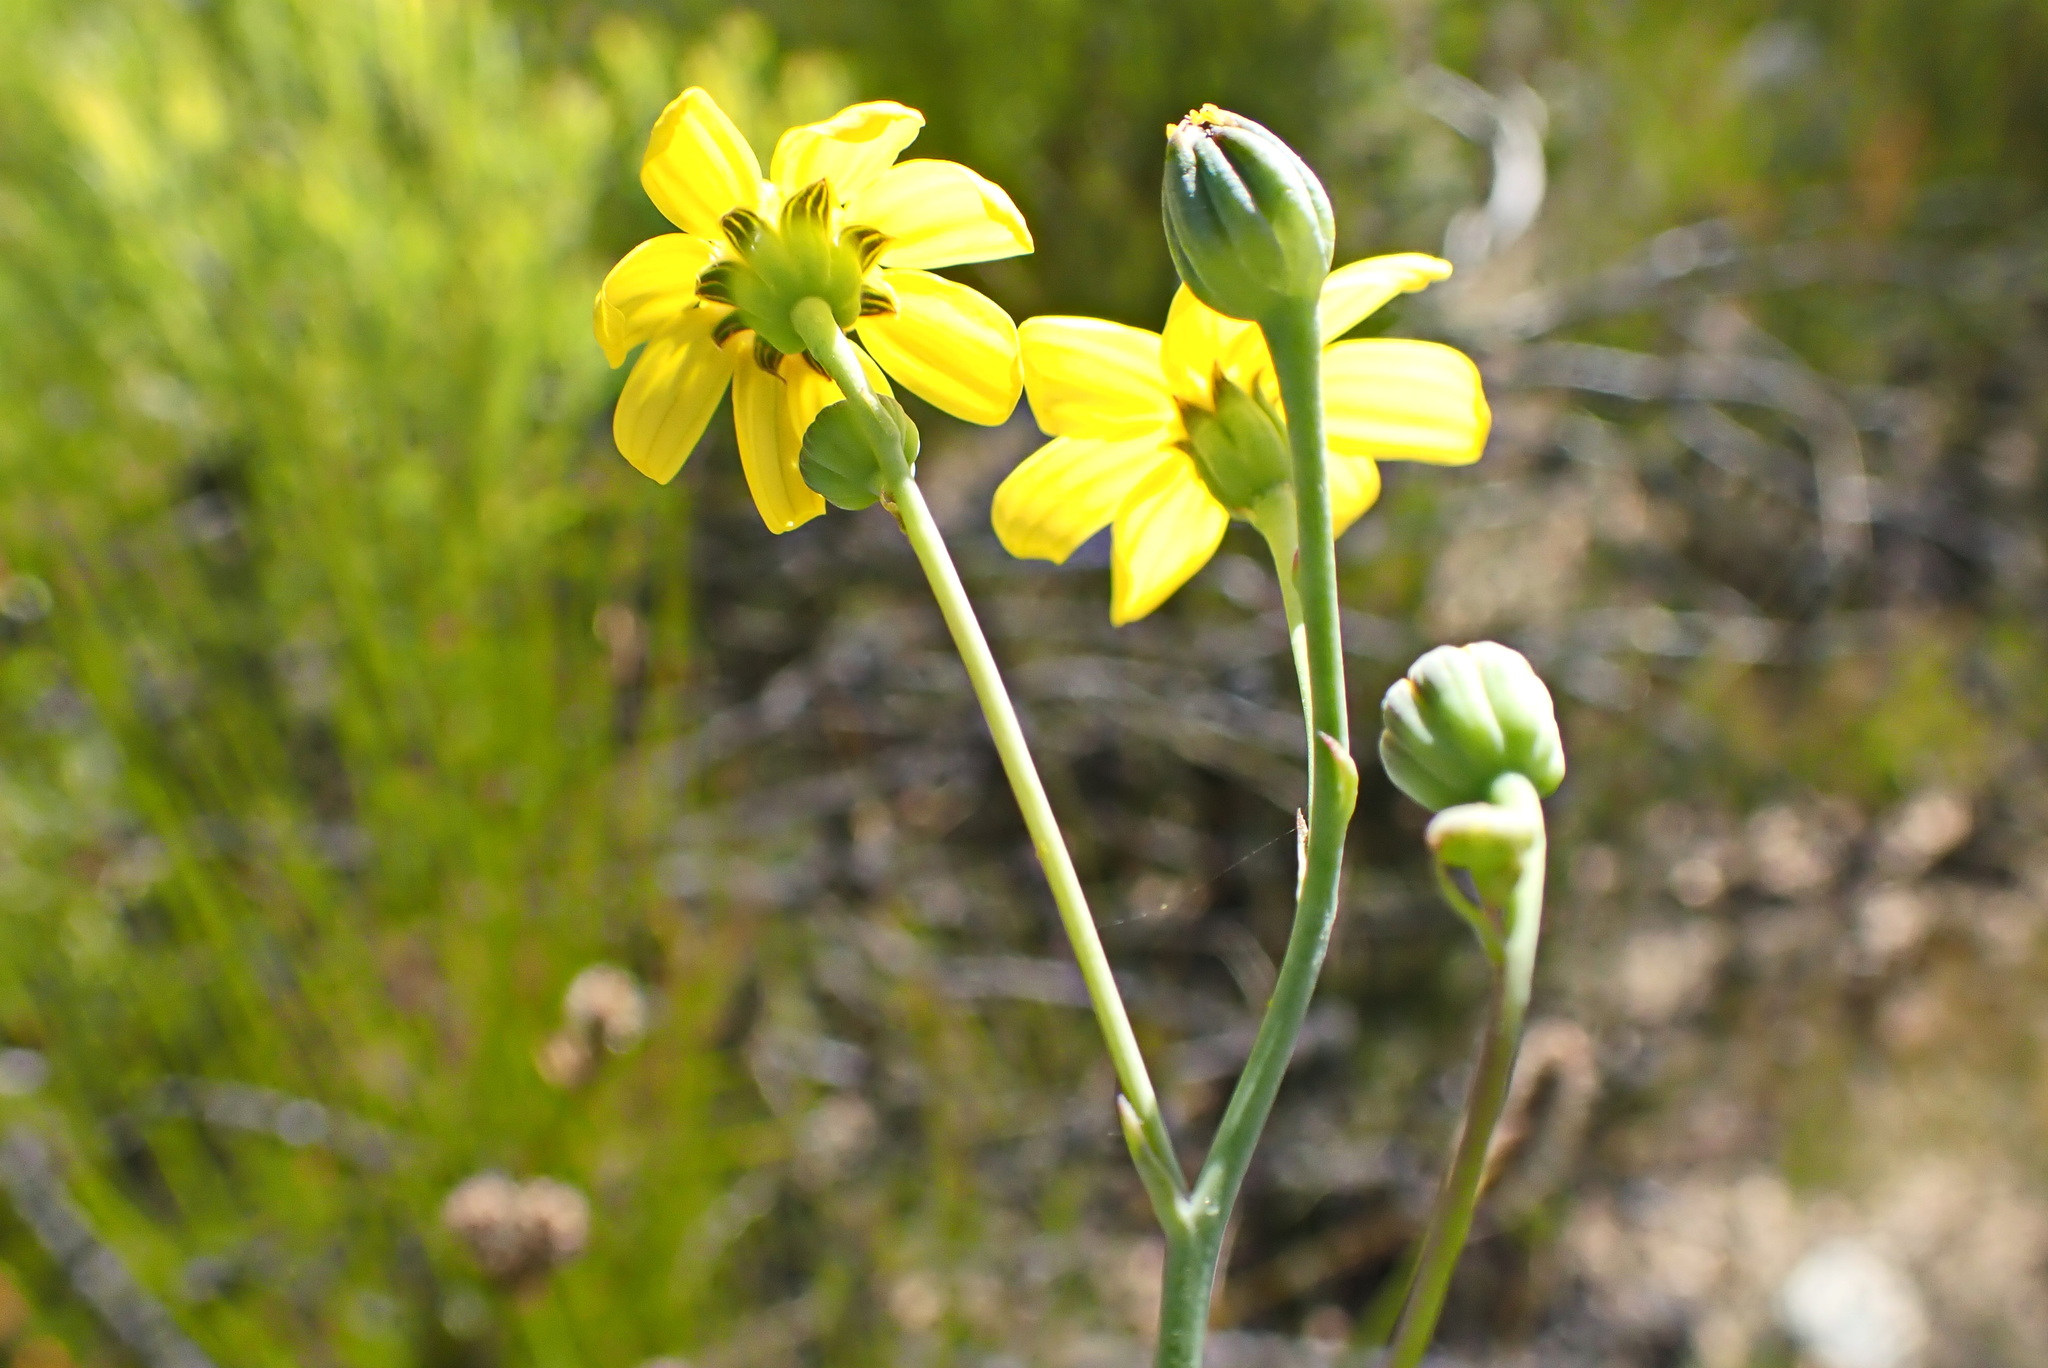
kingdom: Plantae
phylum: Tracheophyta
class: Magnoliopsida
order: Asterales
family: Asteraceae
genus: Othonna
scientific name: Othonna quinquedentata
